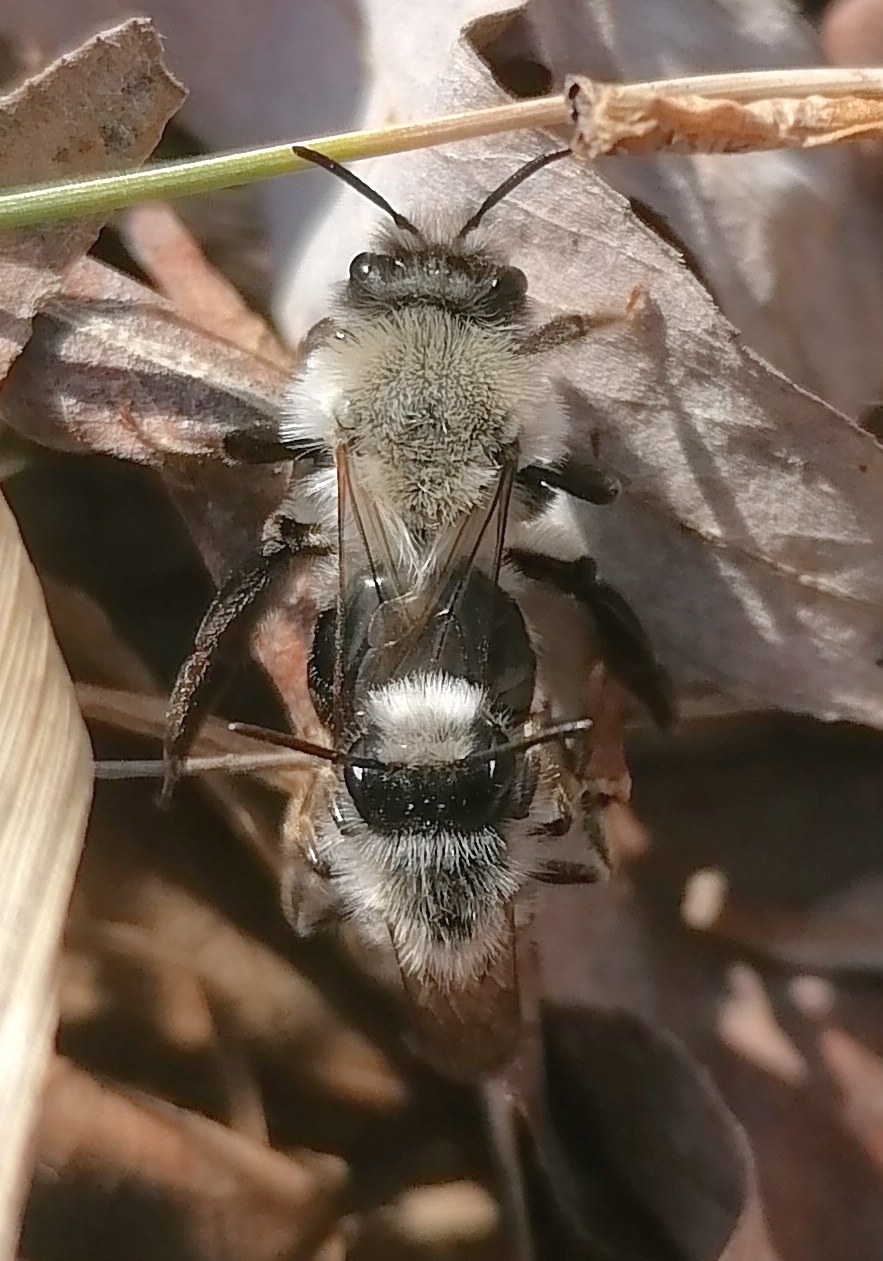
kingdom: Animalia
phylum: Arthropoda
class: Insecta
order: Hymenoptera
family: Andrenidae
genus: Andrena
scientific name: Andrena vaga
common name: Grey-backed mining bee
